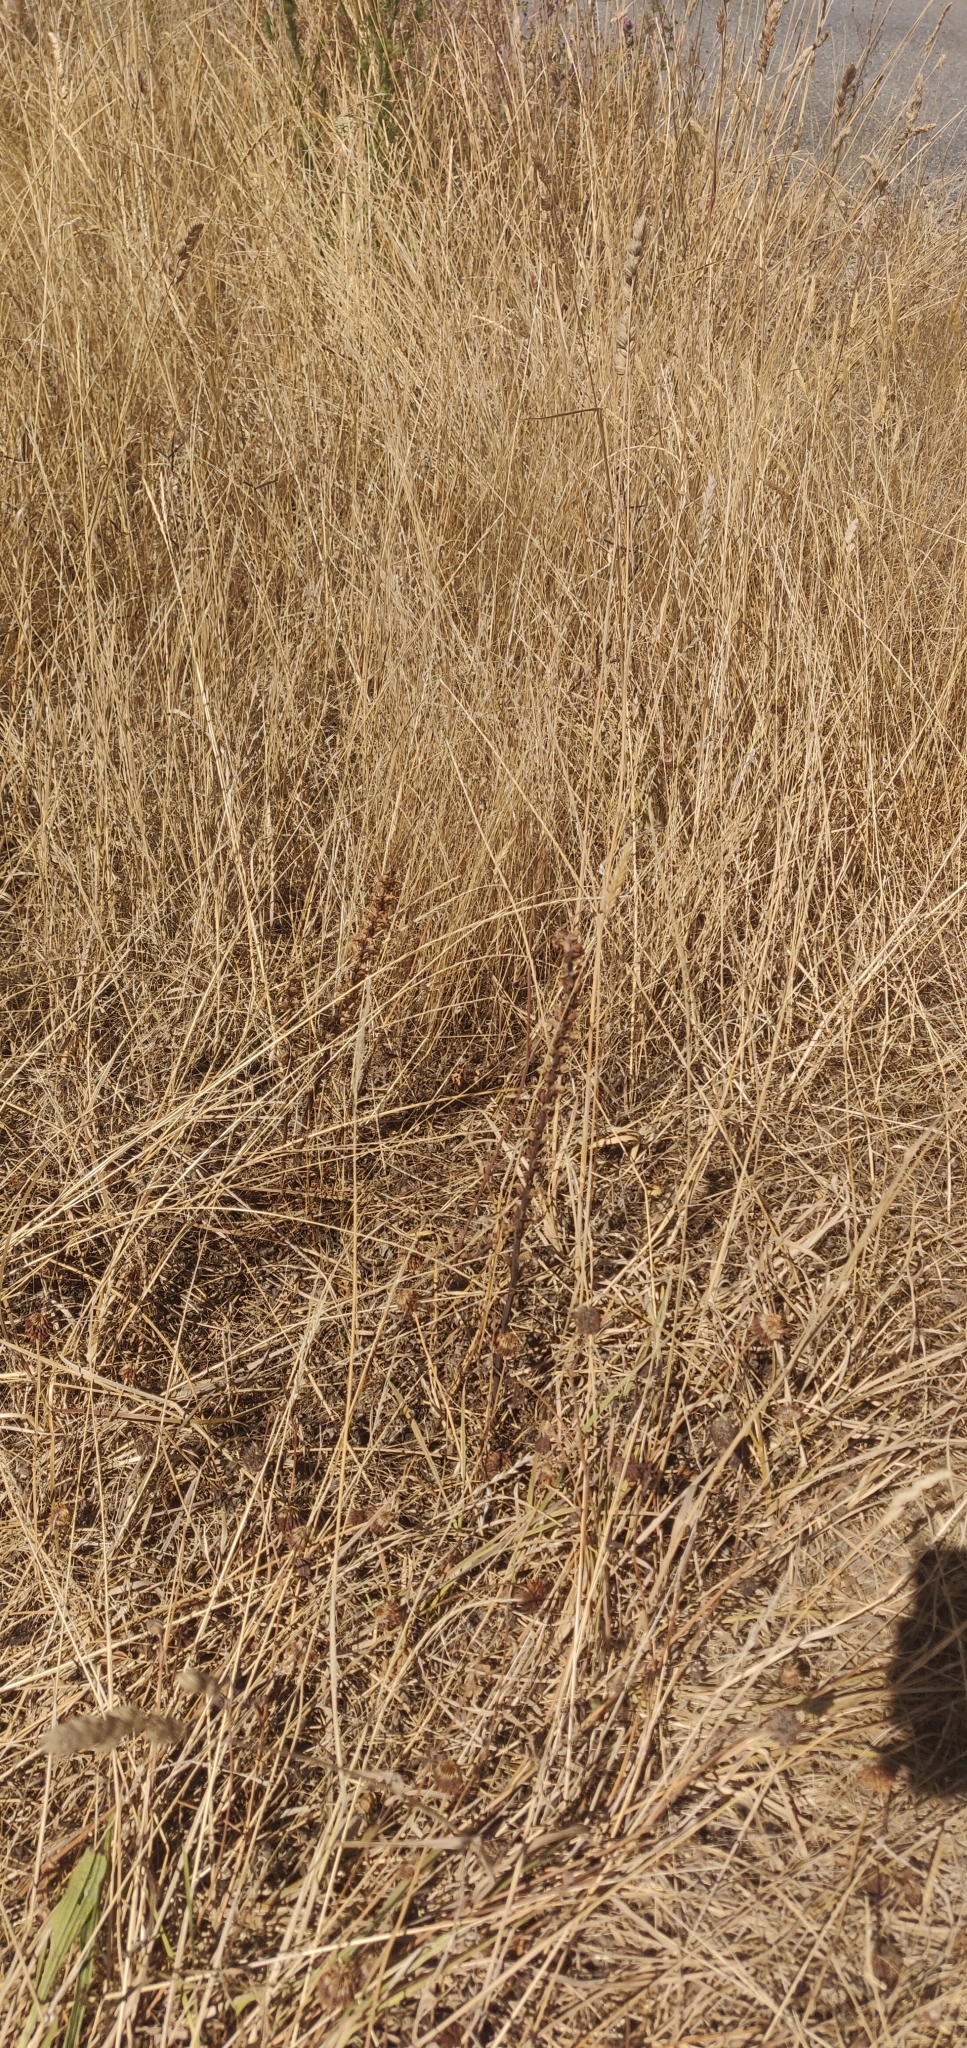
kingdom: Plantae
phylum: Tracheophyta
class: Magnoliopsida
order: Lamiales
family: Orobanchaceae
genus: Orobanche
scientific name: Orobanche minor
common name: Common broomrape
